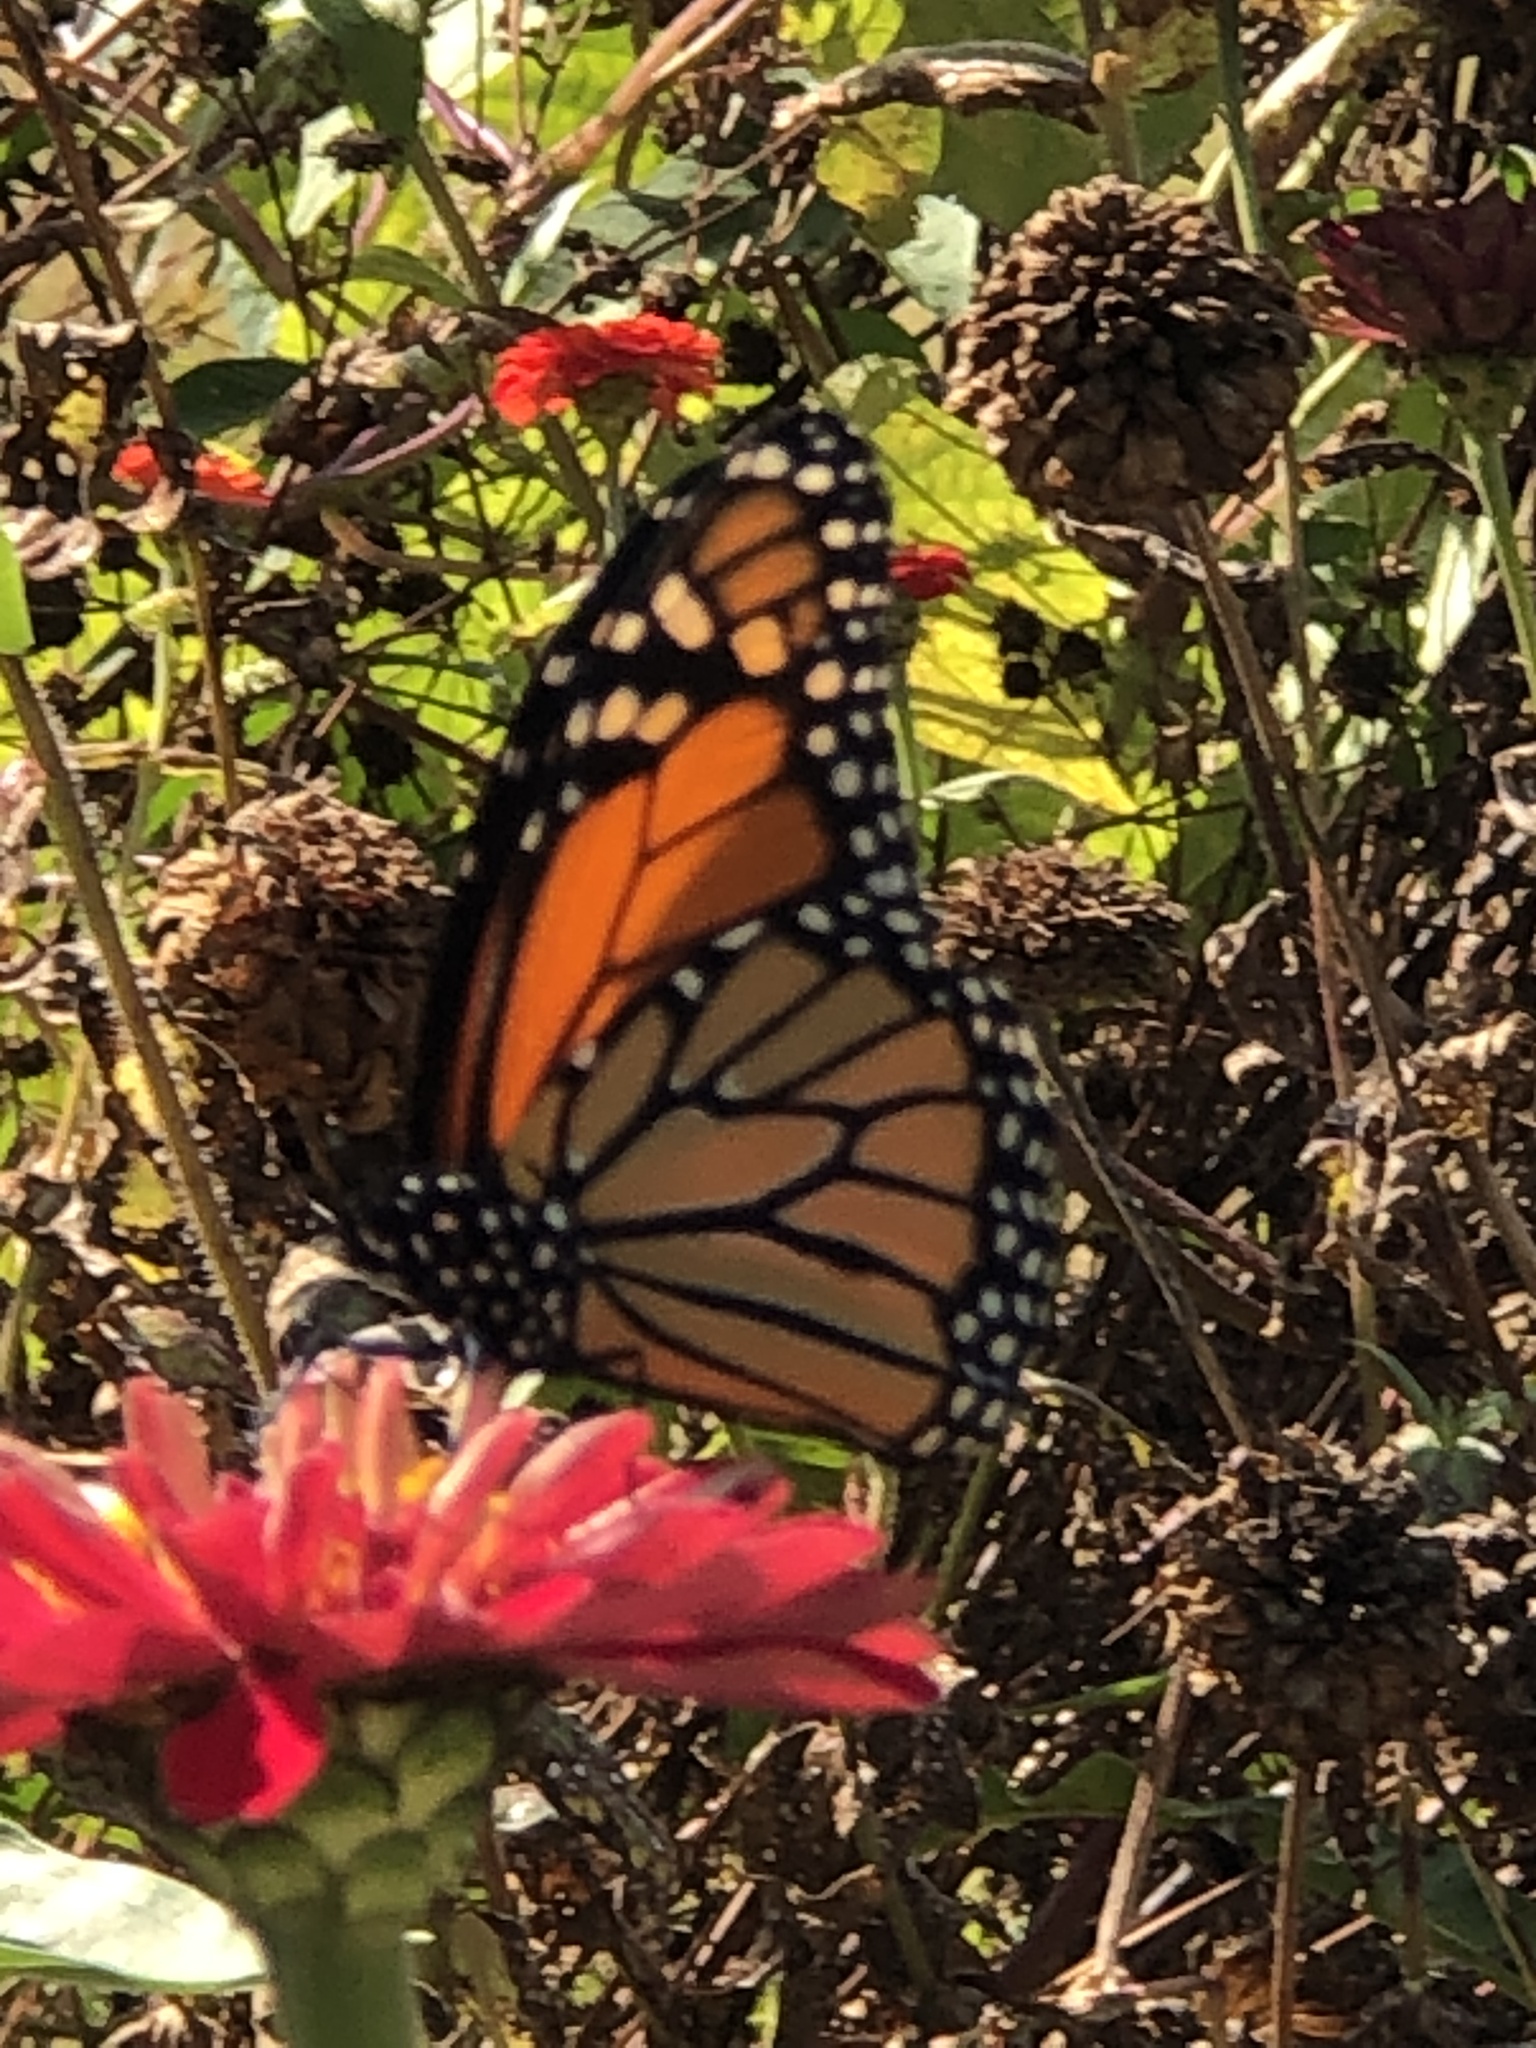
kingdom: Animalia
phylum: Arthropoda
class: Insecta
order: Lepidoptera
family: Nymphalidae
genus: Danaus
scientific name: Danaus plexippus
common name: Monarch
